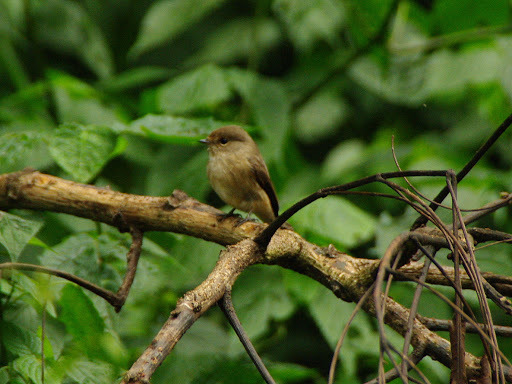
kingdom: Animalia
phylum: Chordata
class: Aves
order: Passeriformes
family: Muscicapidae
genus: Muscicapa
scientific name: Muscicapa adusta
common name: African dusky flycatcher
